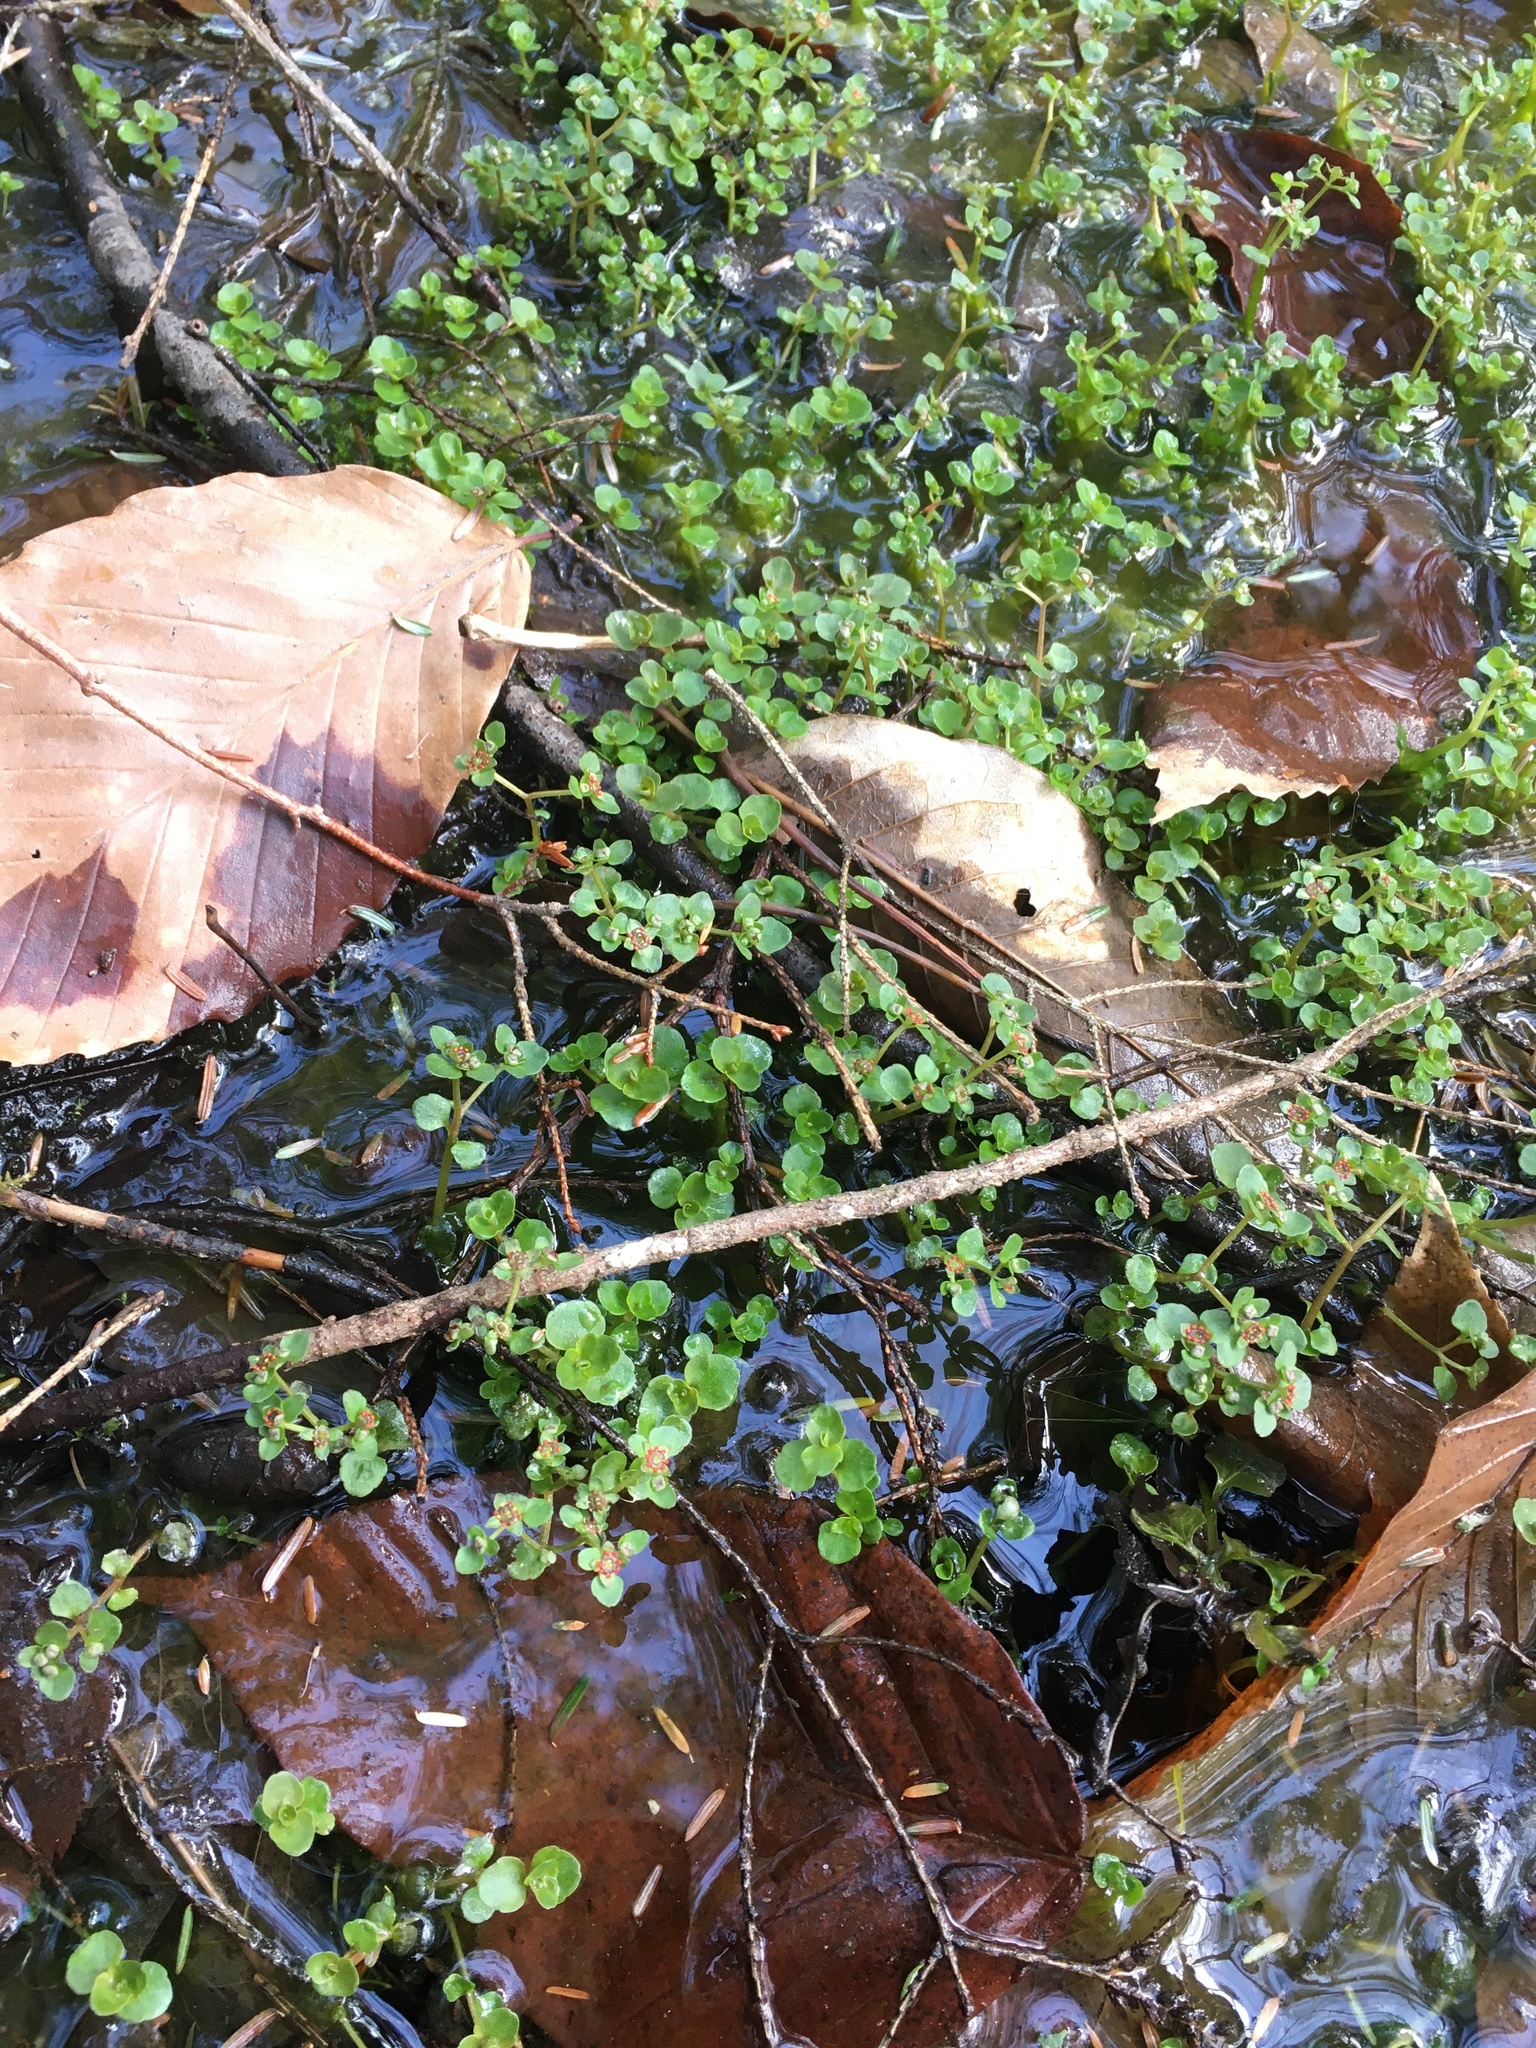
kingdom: Plantae
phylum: Tracheophyta
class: Magnoliopsida
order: Saxifragales
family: Saxifragaceae
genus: Chrysosplenium
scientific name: Chrysosplenium americanum
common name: American golden-saxifrage
